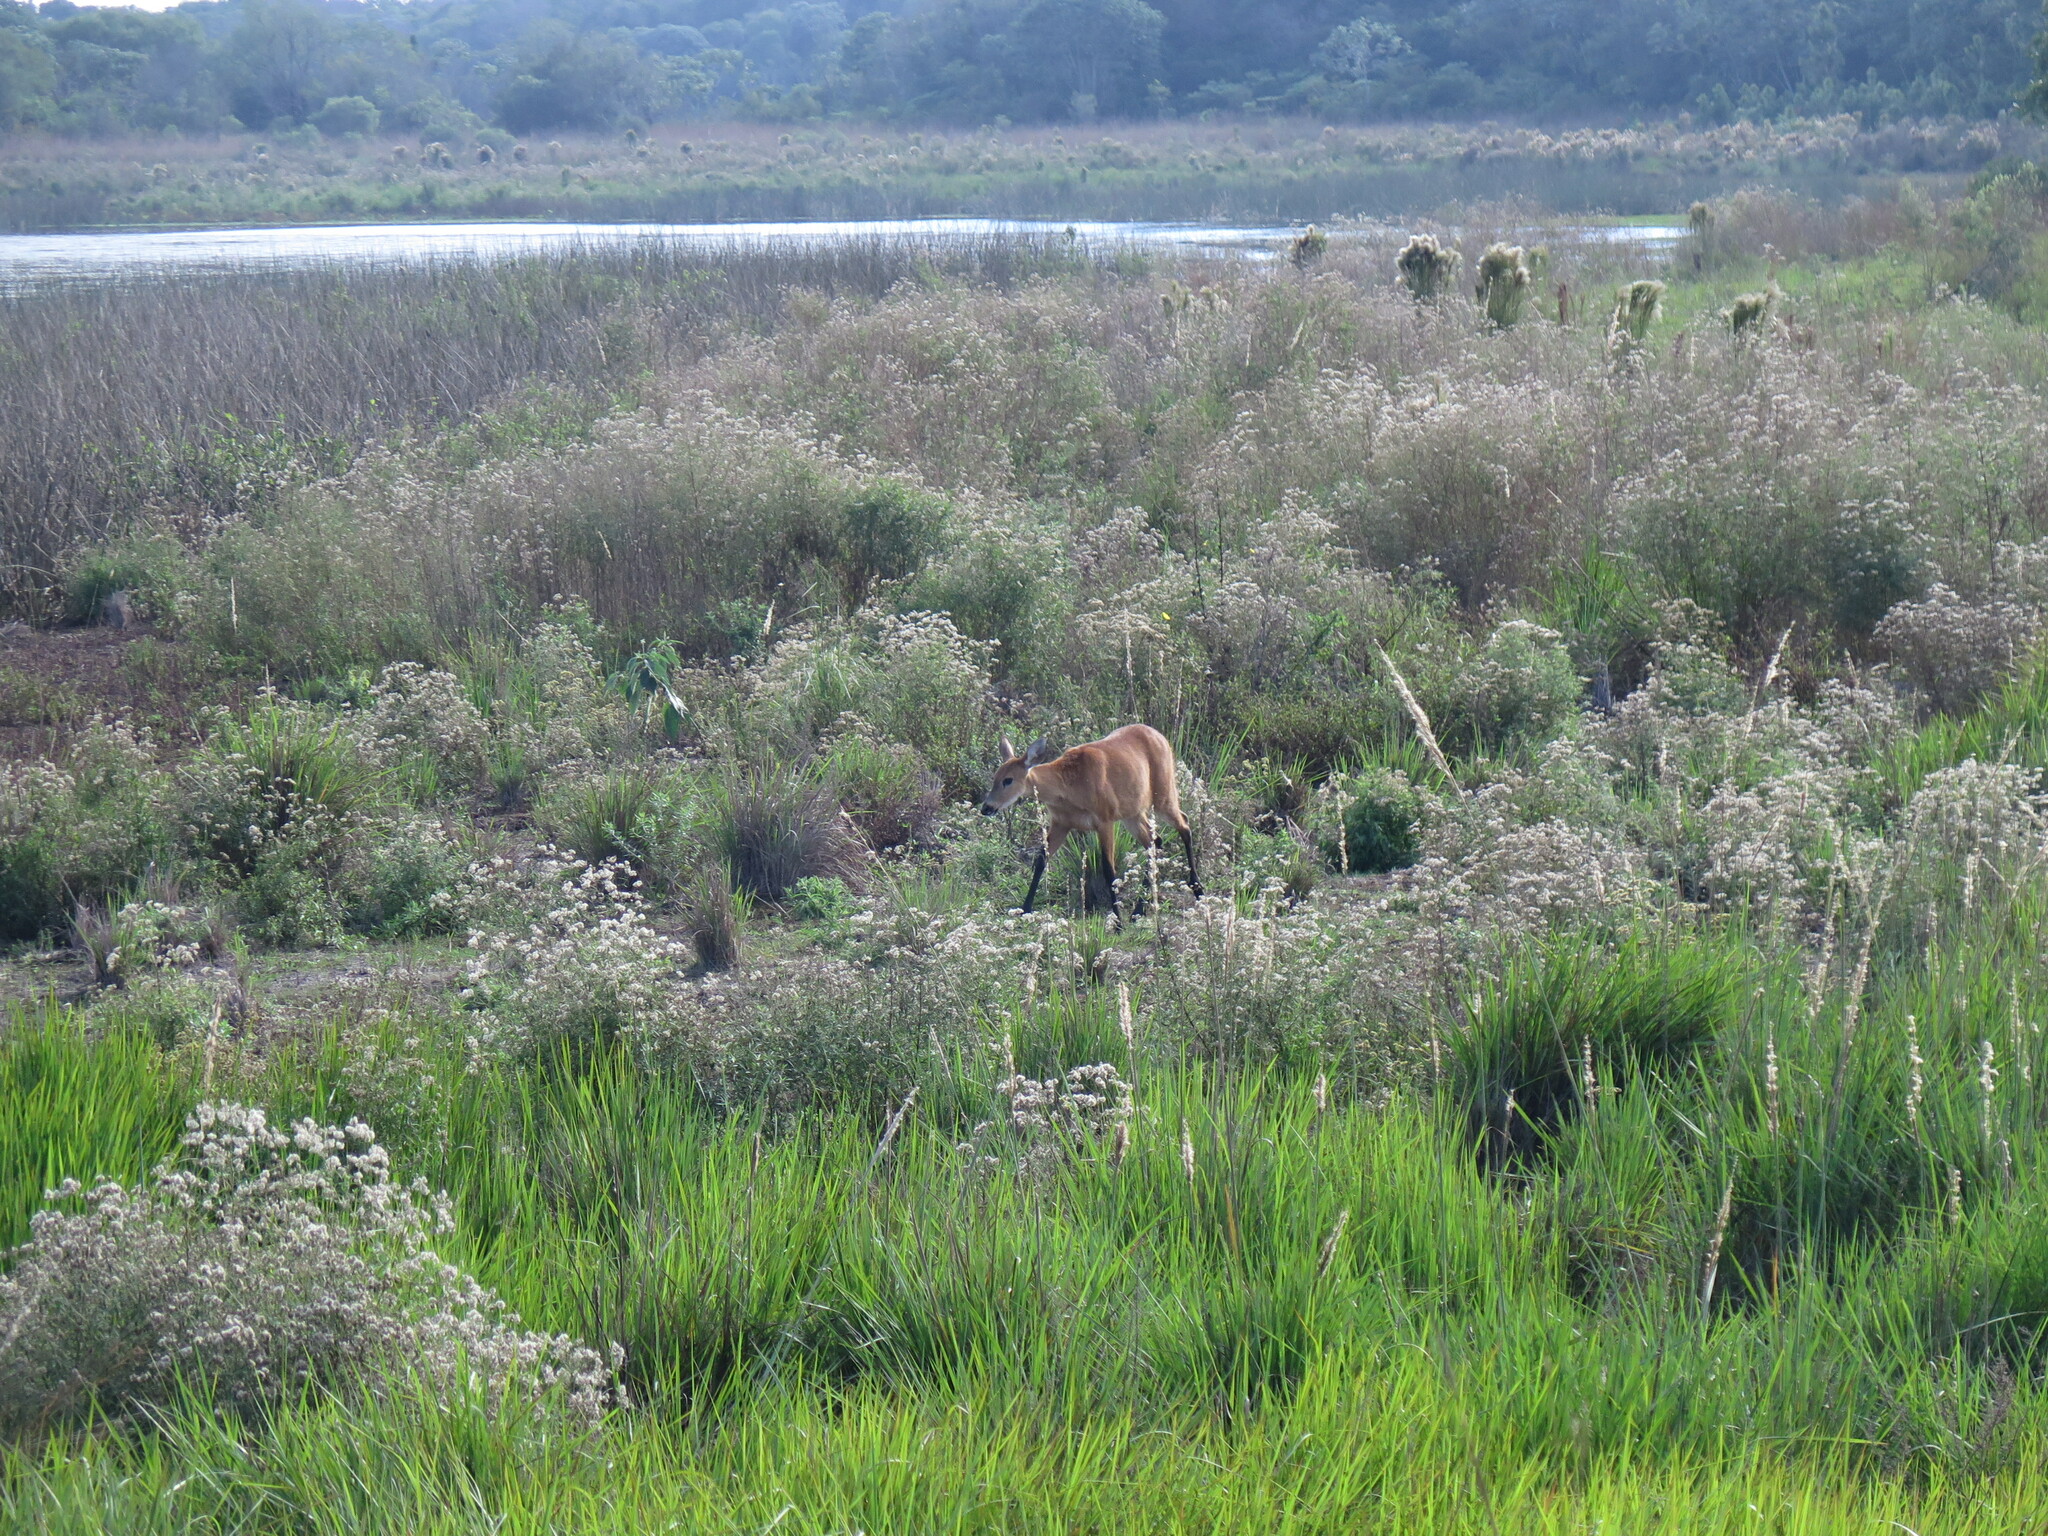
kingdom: Animalia
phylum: Chordata
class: Mammalia
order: Artiodactyla
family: Cervidae
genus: Blastocerus
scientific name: Blastocerus dichotomus
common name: Marsh deer
